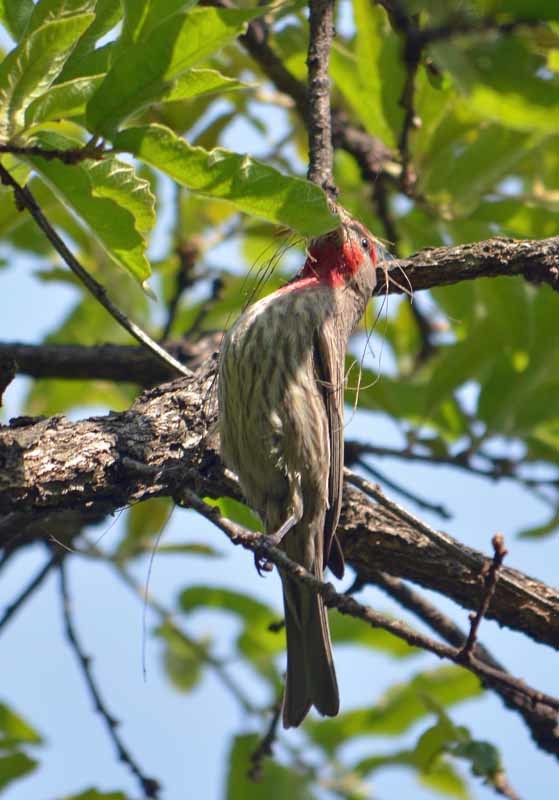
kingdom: Animalia
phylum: Chordata
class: Aves
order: Passeriformes
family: Fringillidae
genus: Haemorhous
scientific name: Haemorhous mexicanus
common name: House finch
